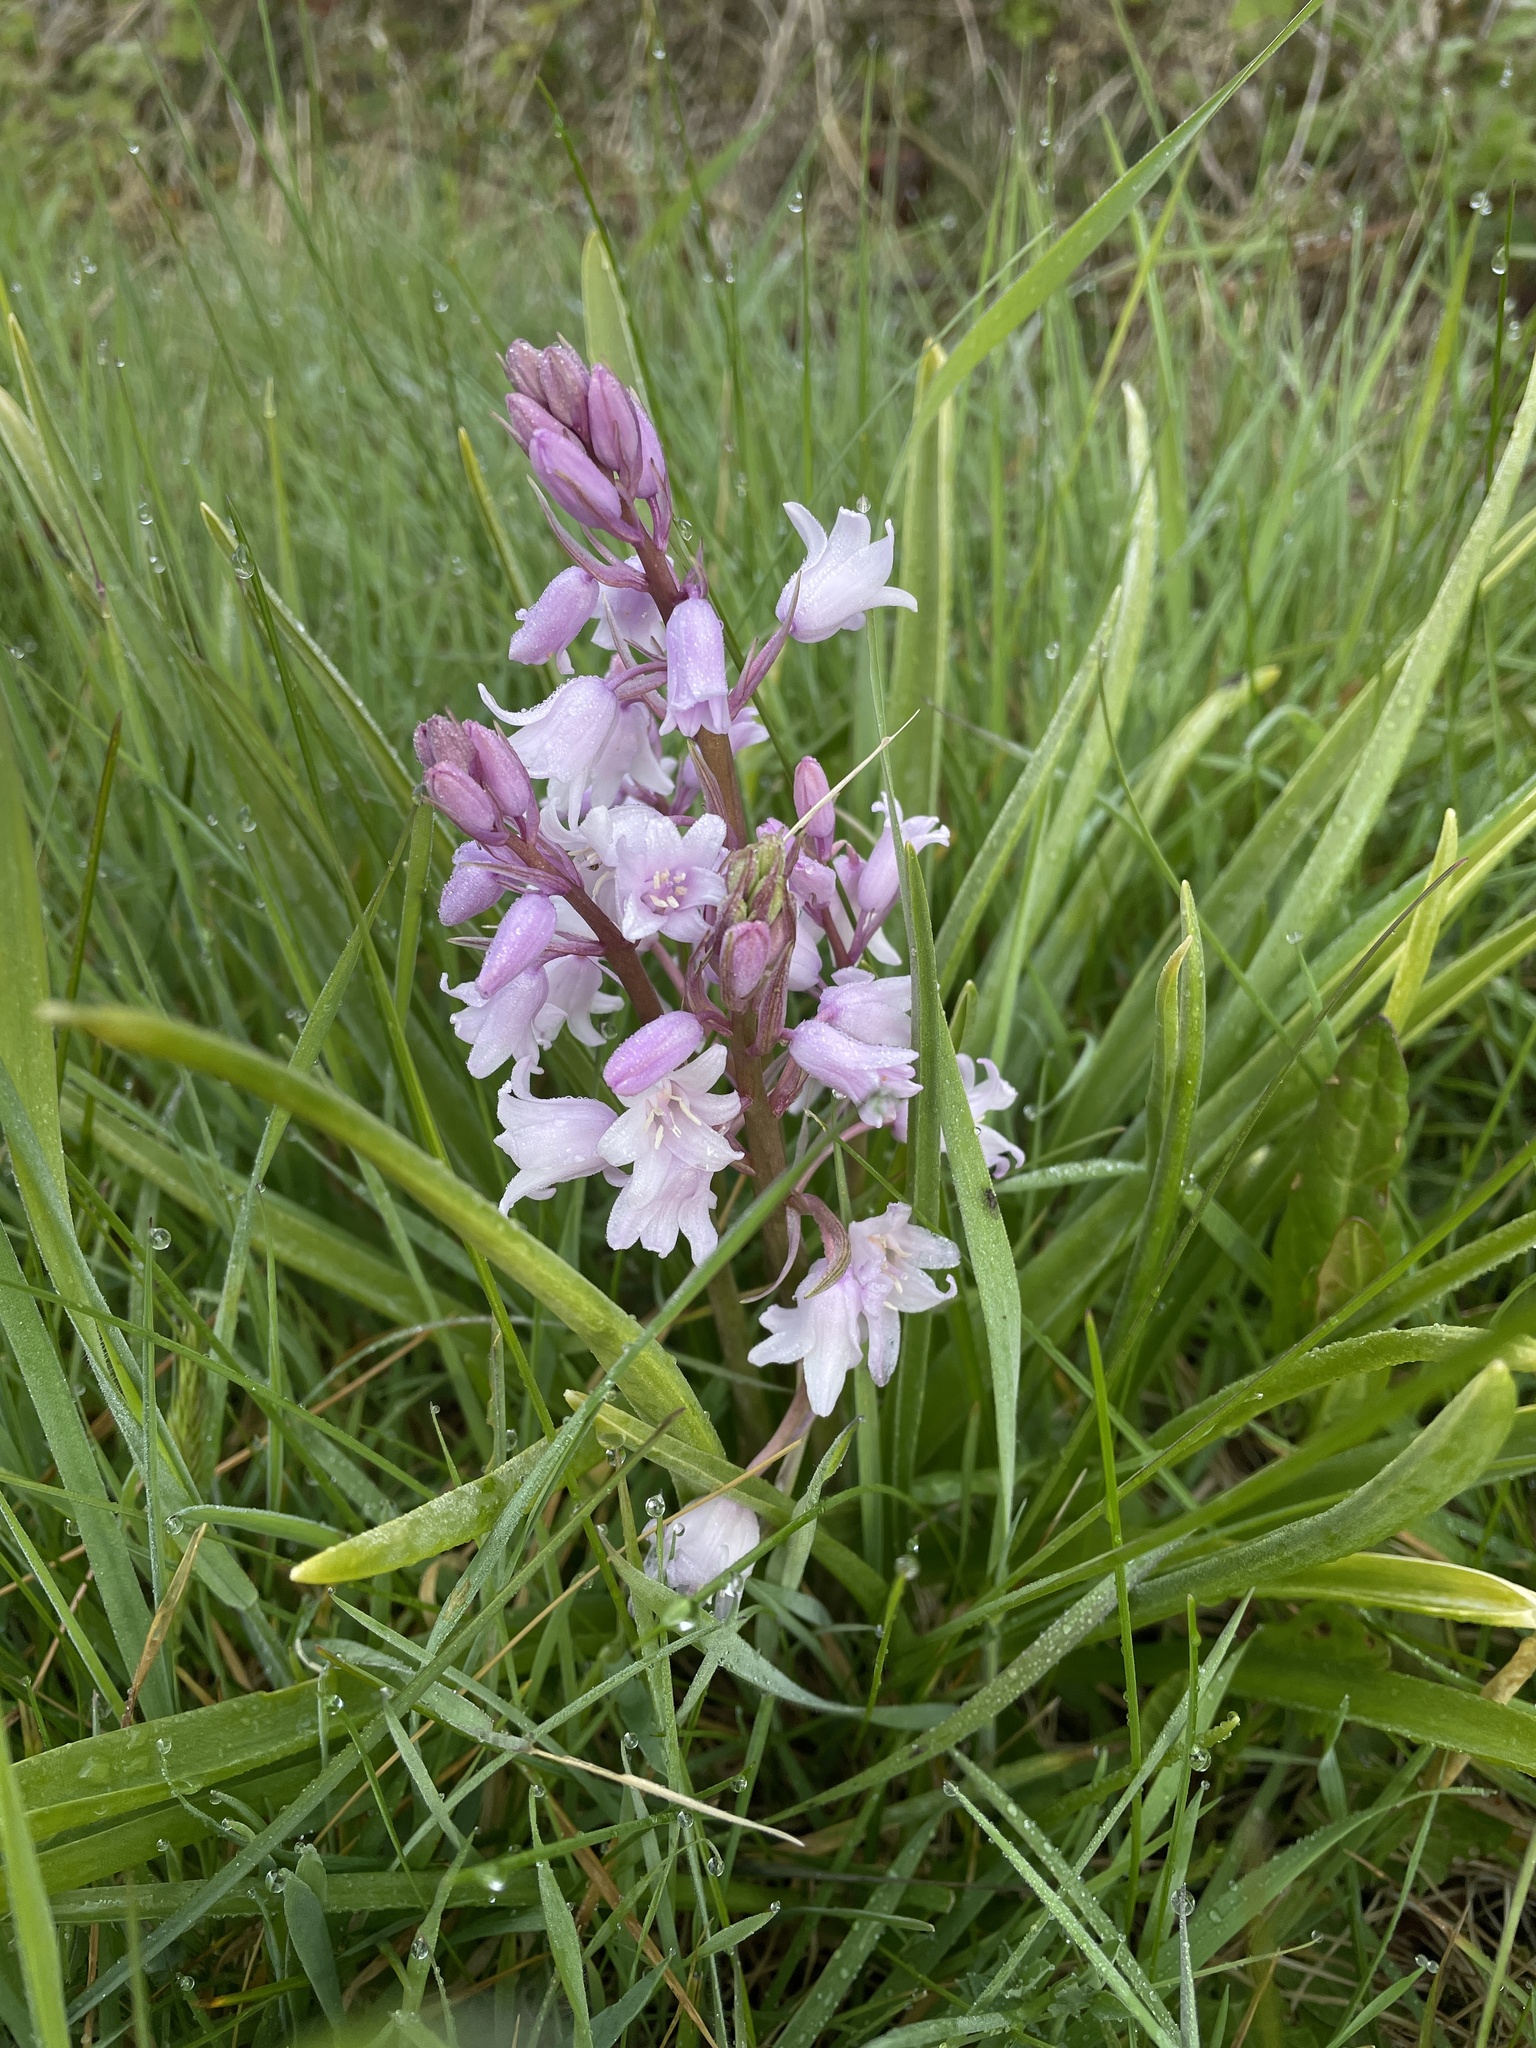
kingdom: Plantae
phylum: Tracheophyta
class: Liliopsida
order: Asparagales
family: Asparagaceae
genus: Hyacinthoides
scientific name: Hyacinthoides hispanica
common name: Spanish bluebell
